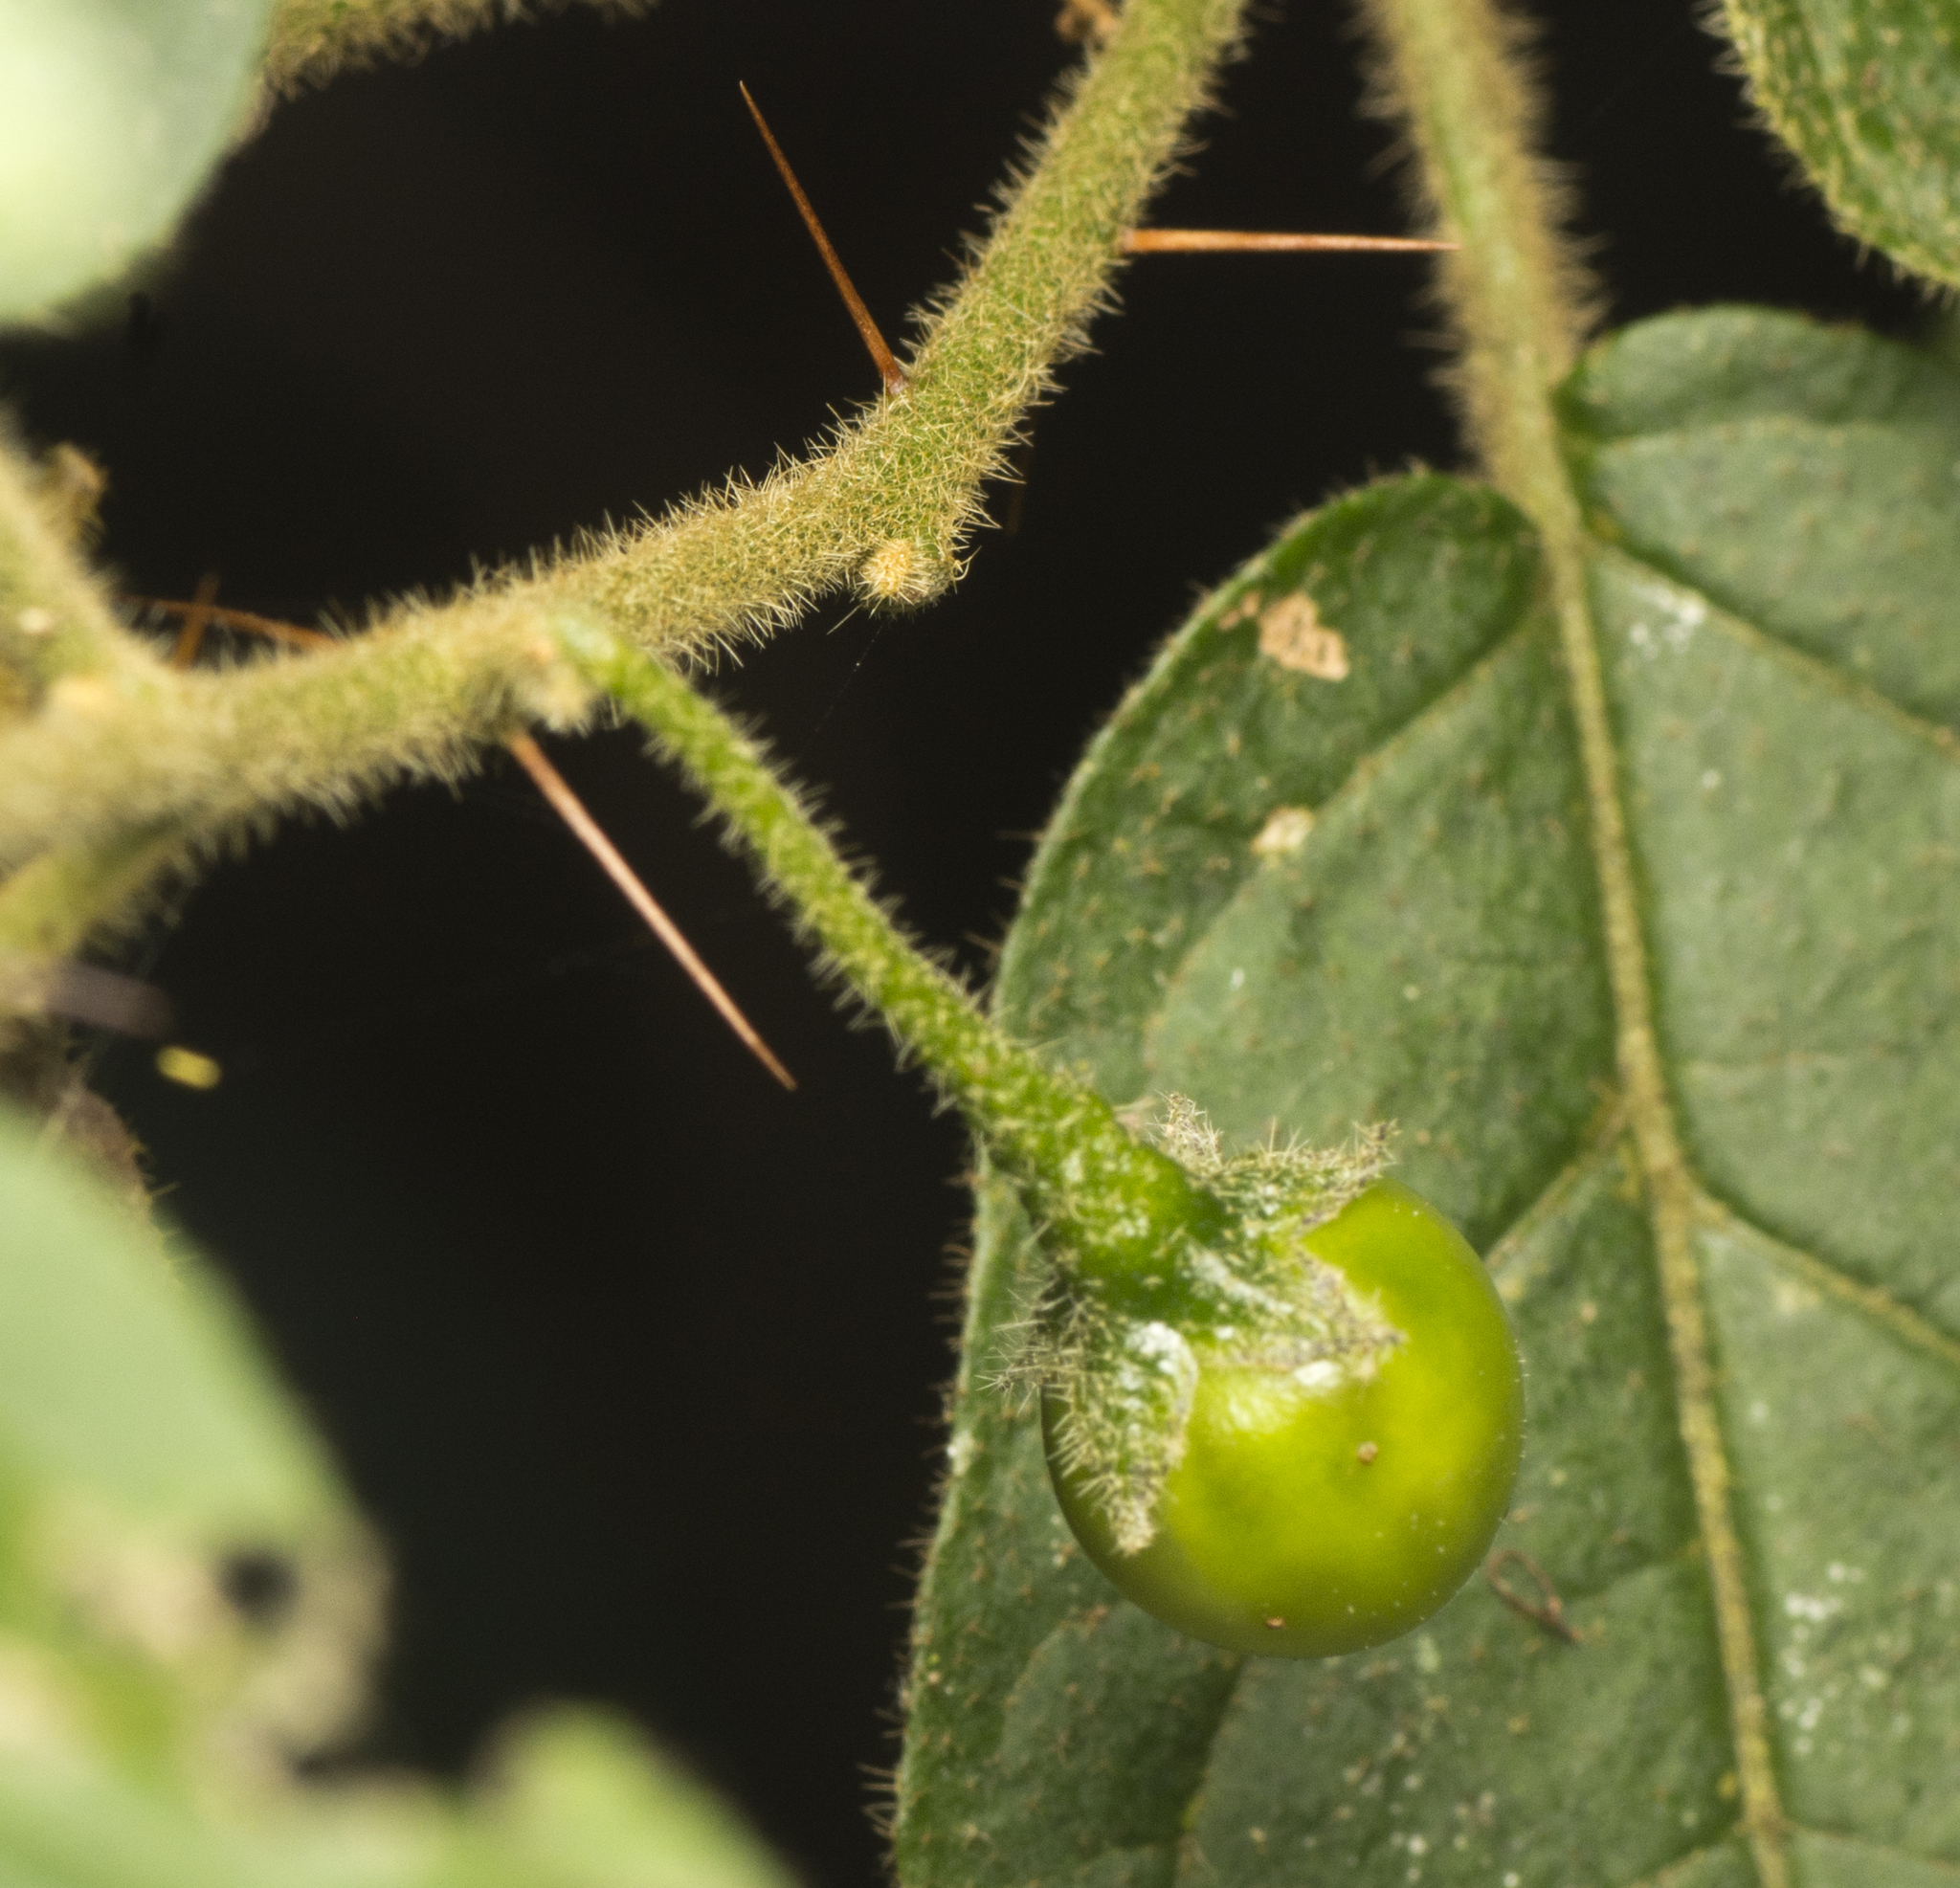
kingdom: Plantae
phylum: Tracheophyta
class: Magnoliopsida
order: Solanales
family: Solanaceae
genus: Solanum
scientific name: Solanum stelligerum
